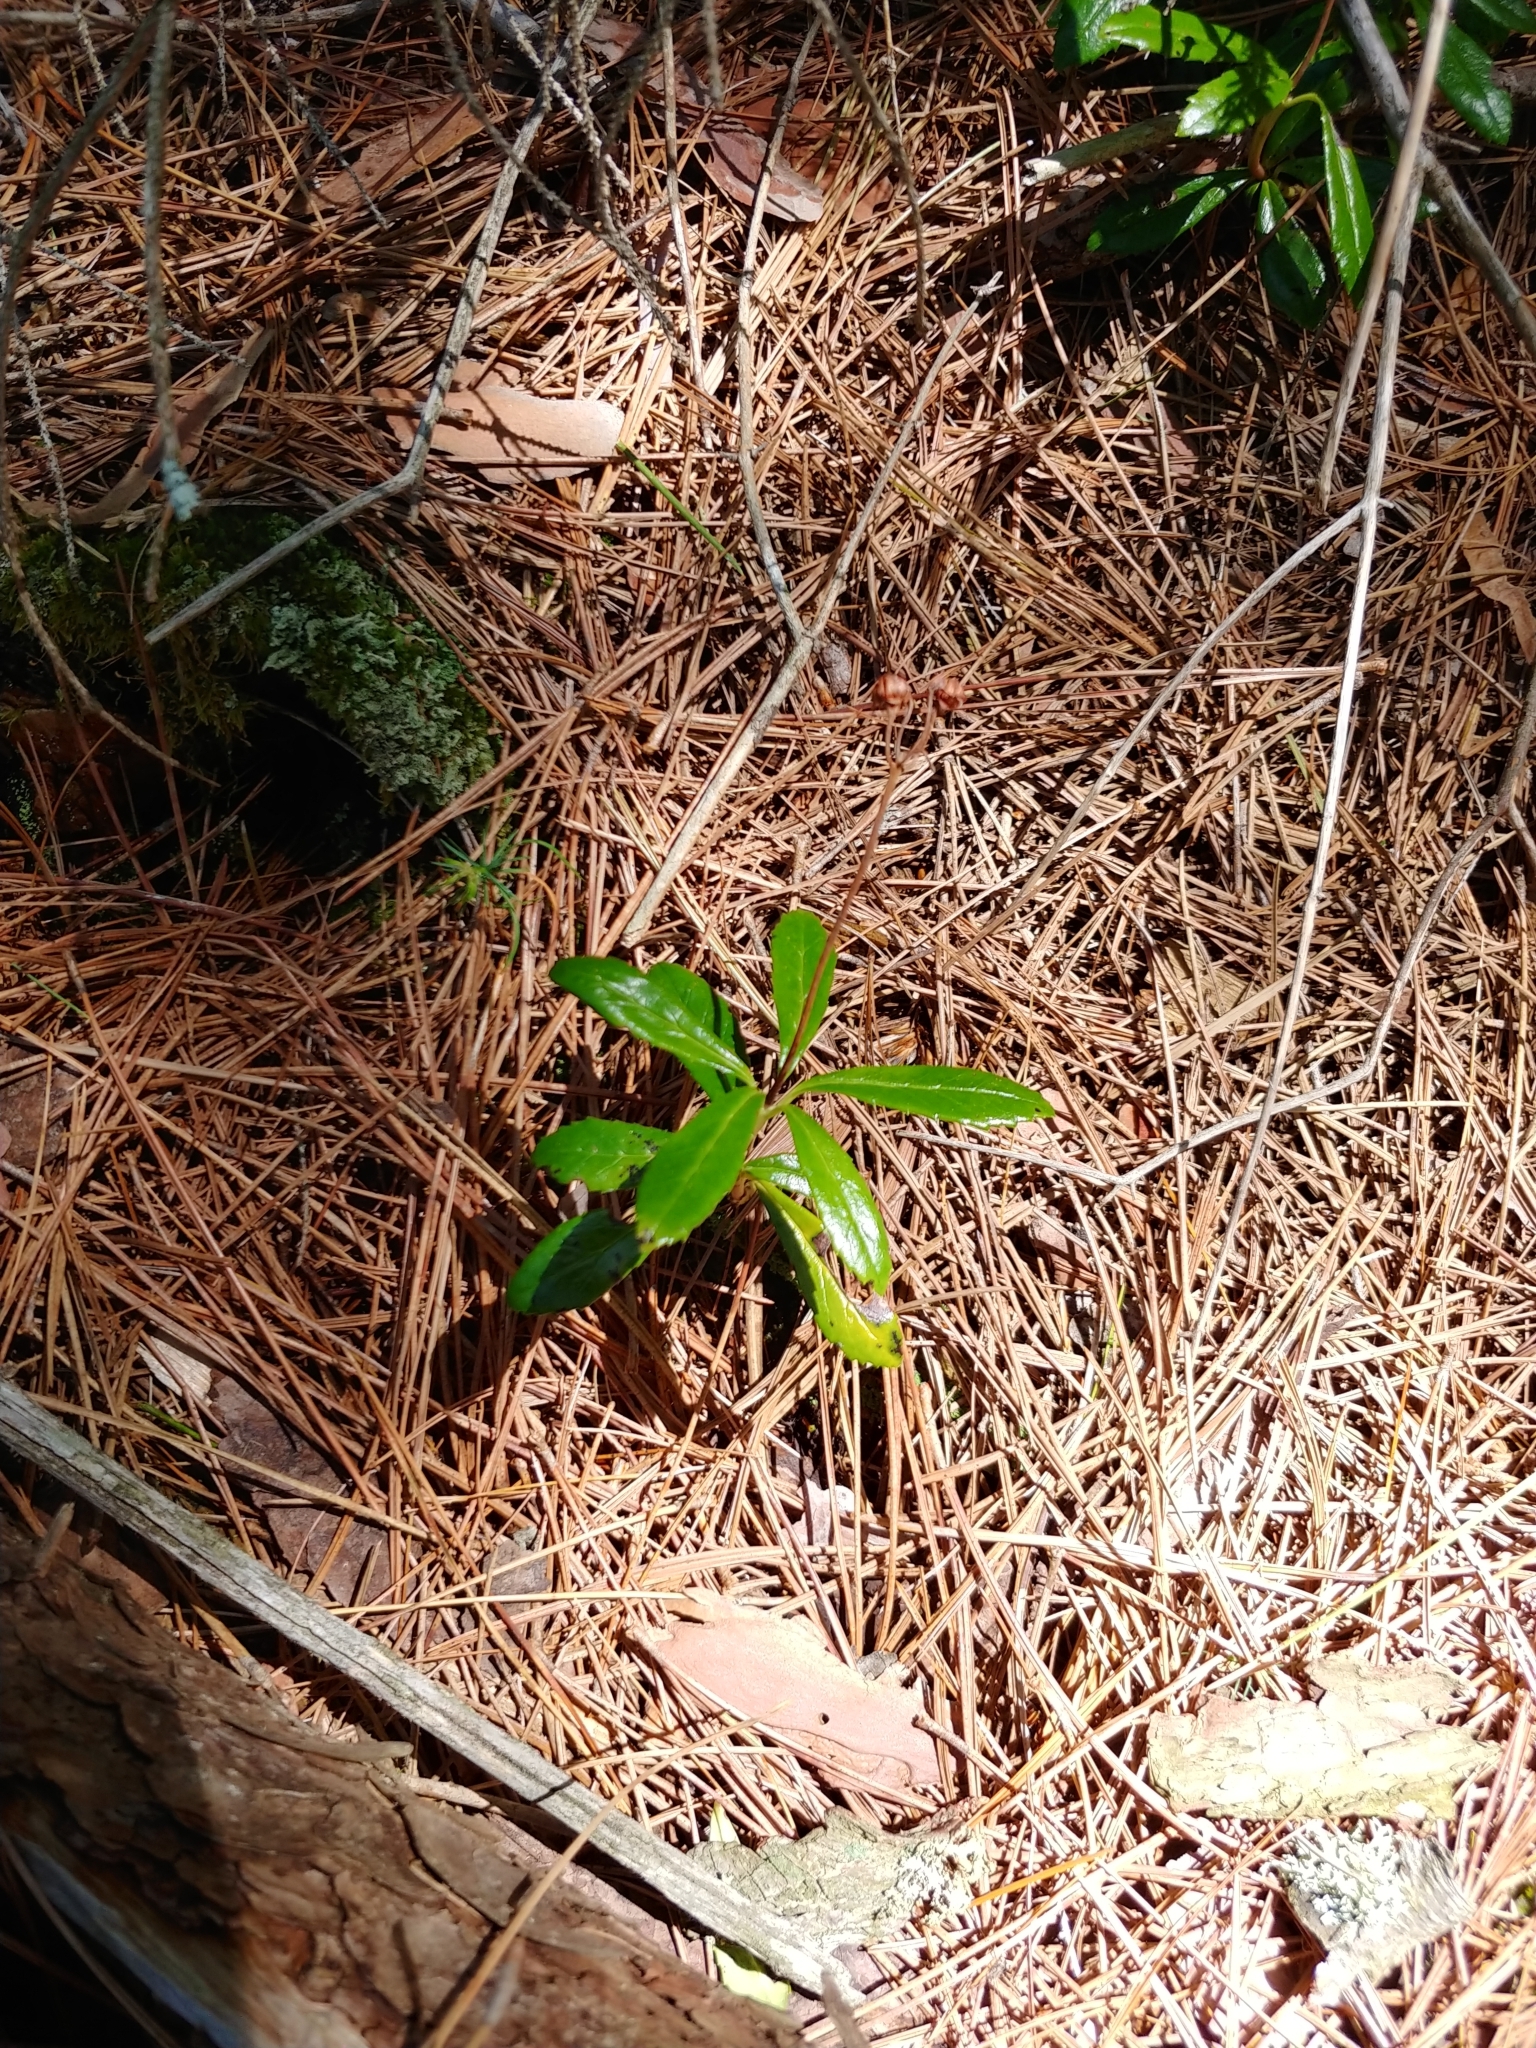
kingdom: Plantae
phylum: Tracheophyta
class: Magnoliopsida
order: Ericales
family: Ericaceae
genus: Chimaphila
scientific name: Chimaphila umbellata
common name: Pipsissewa
